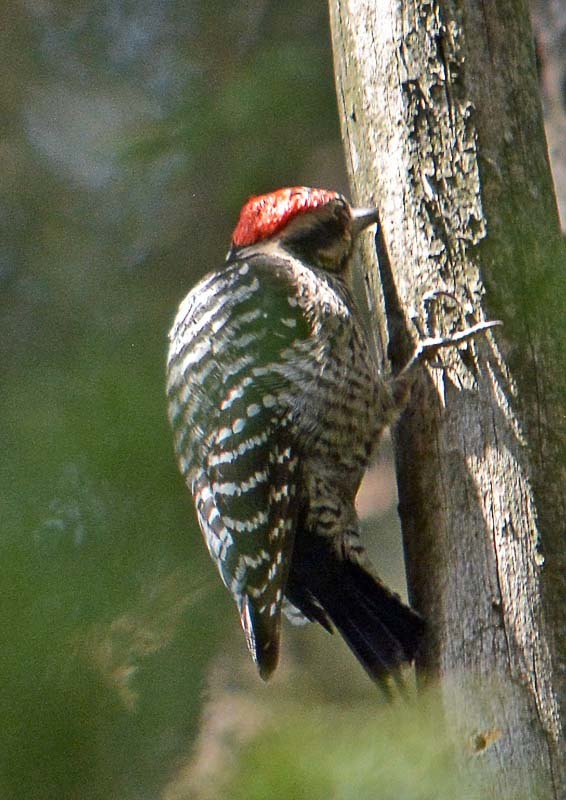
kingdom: Animalia
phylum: Chordata
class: Aves
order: Piciformes
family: Picidae
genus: Dryobates
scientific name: Dryobates scalaris
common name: Ladder-backed woodpecker
